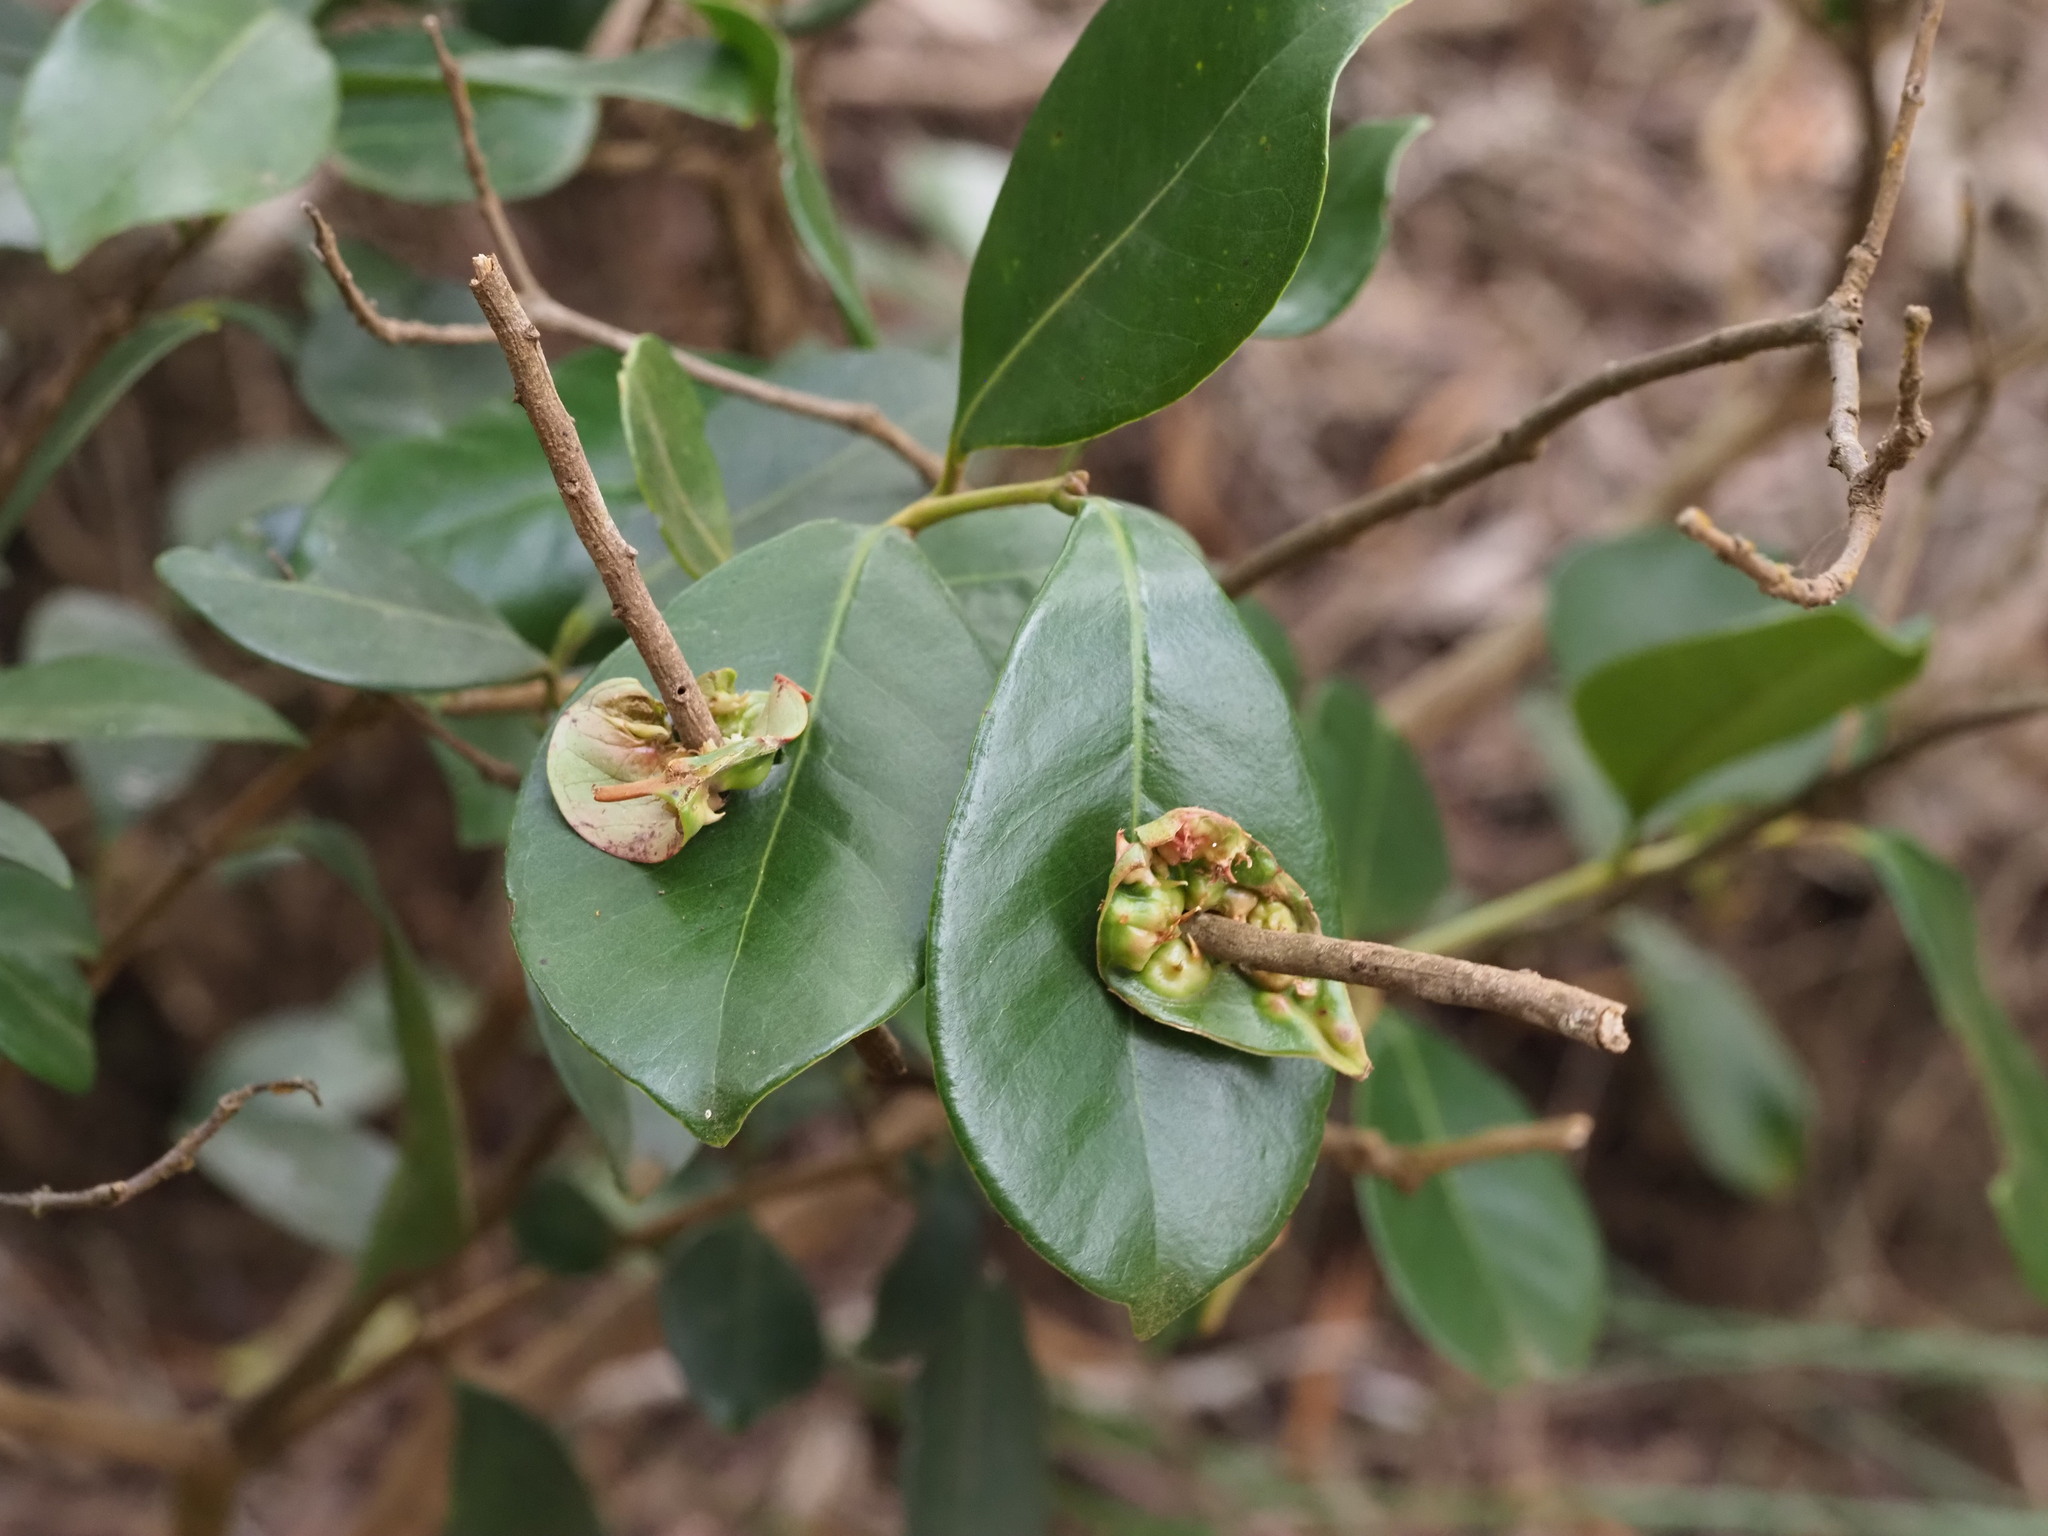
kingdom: Plantae
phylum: Tracheophyta
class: Magnoliopsida
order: Myrtales
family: Myrtaceae
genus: Psidium
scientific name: Psidium cattleianum
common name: Strawberry guava
